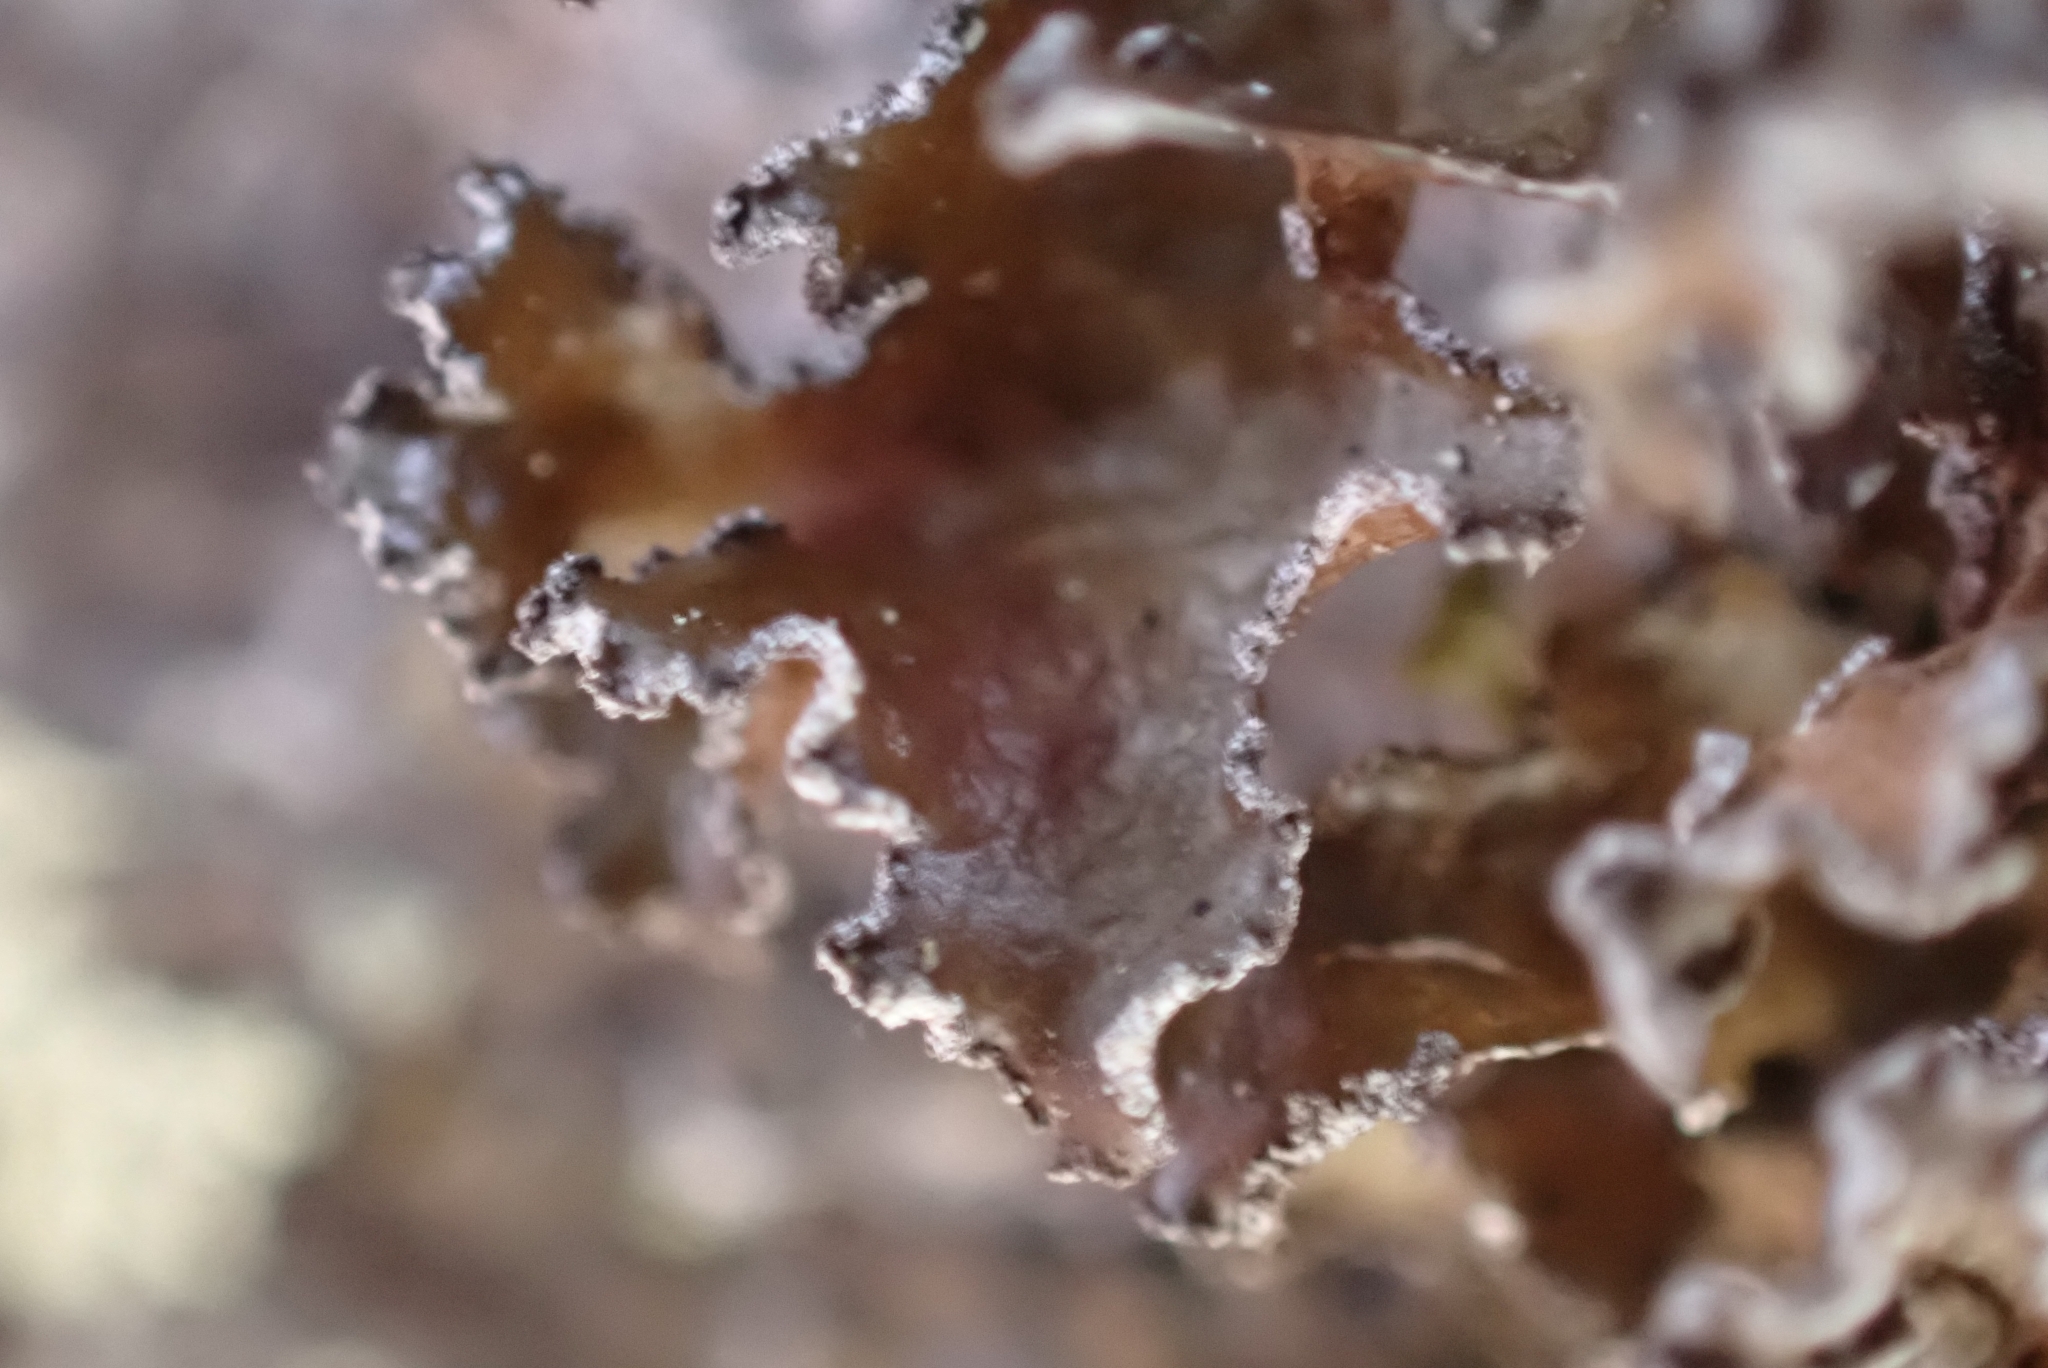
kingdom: Fungi
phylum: Ascomycota
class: Lecanoromycetes
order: Lecanorales
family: Parmeliaceae
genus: Nephromopsis
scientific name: Nephromopsis chlorophylla
